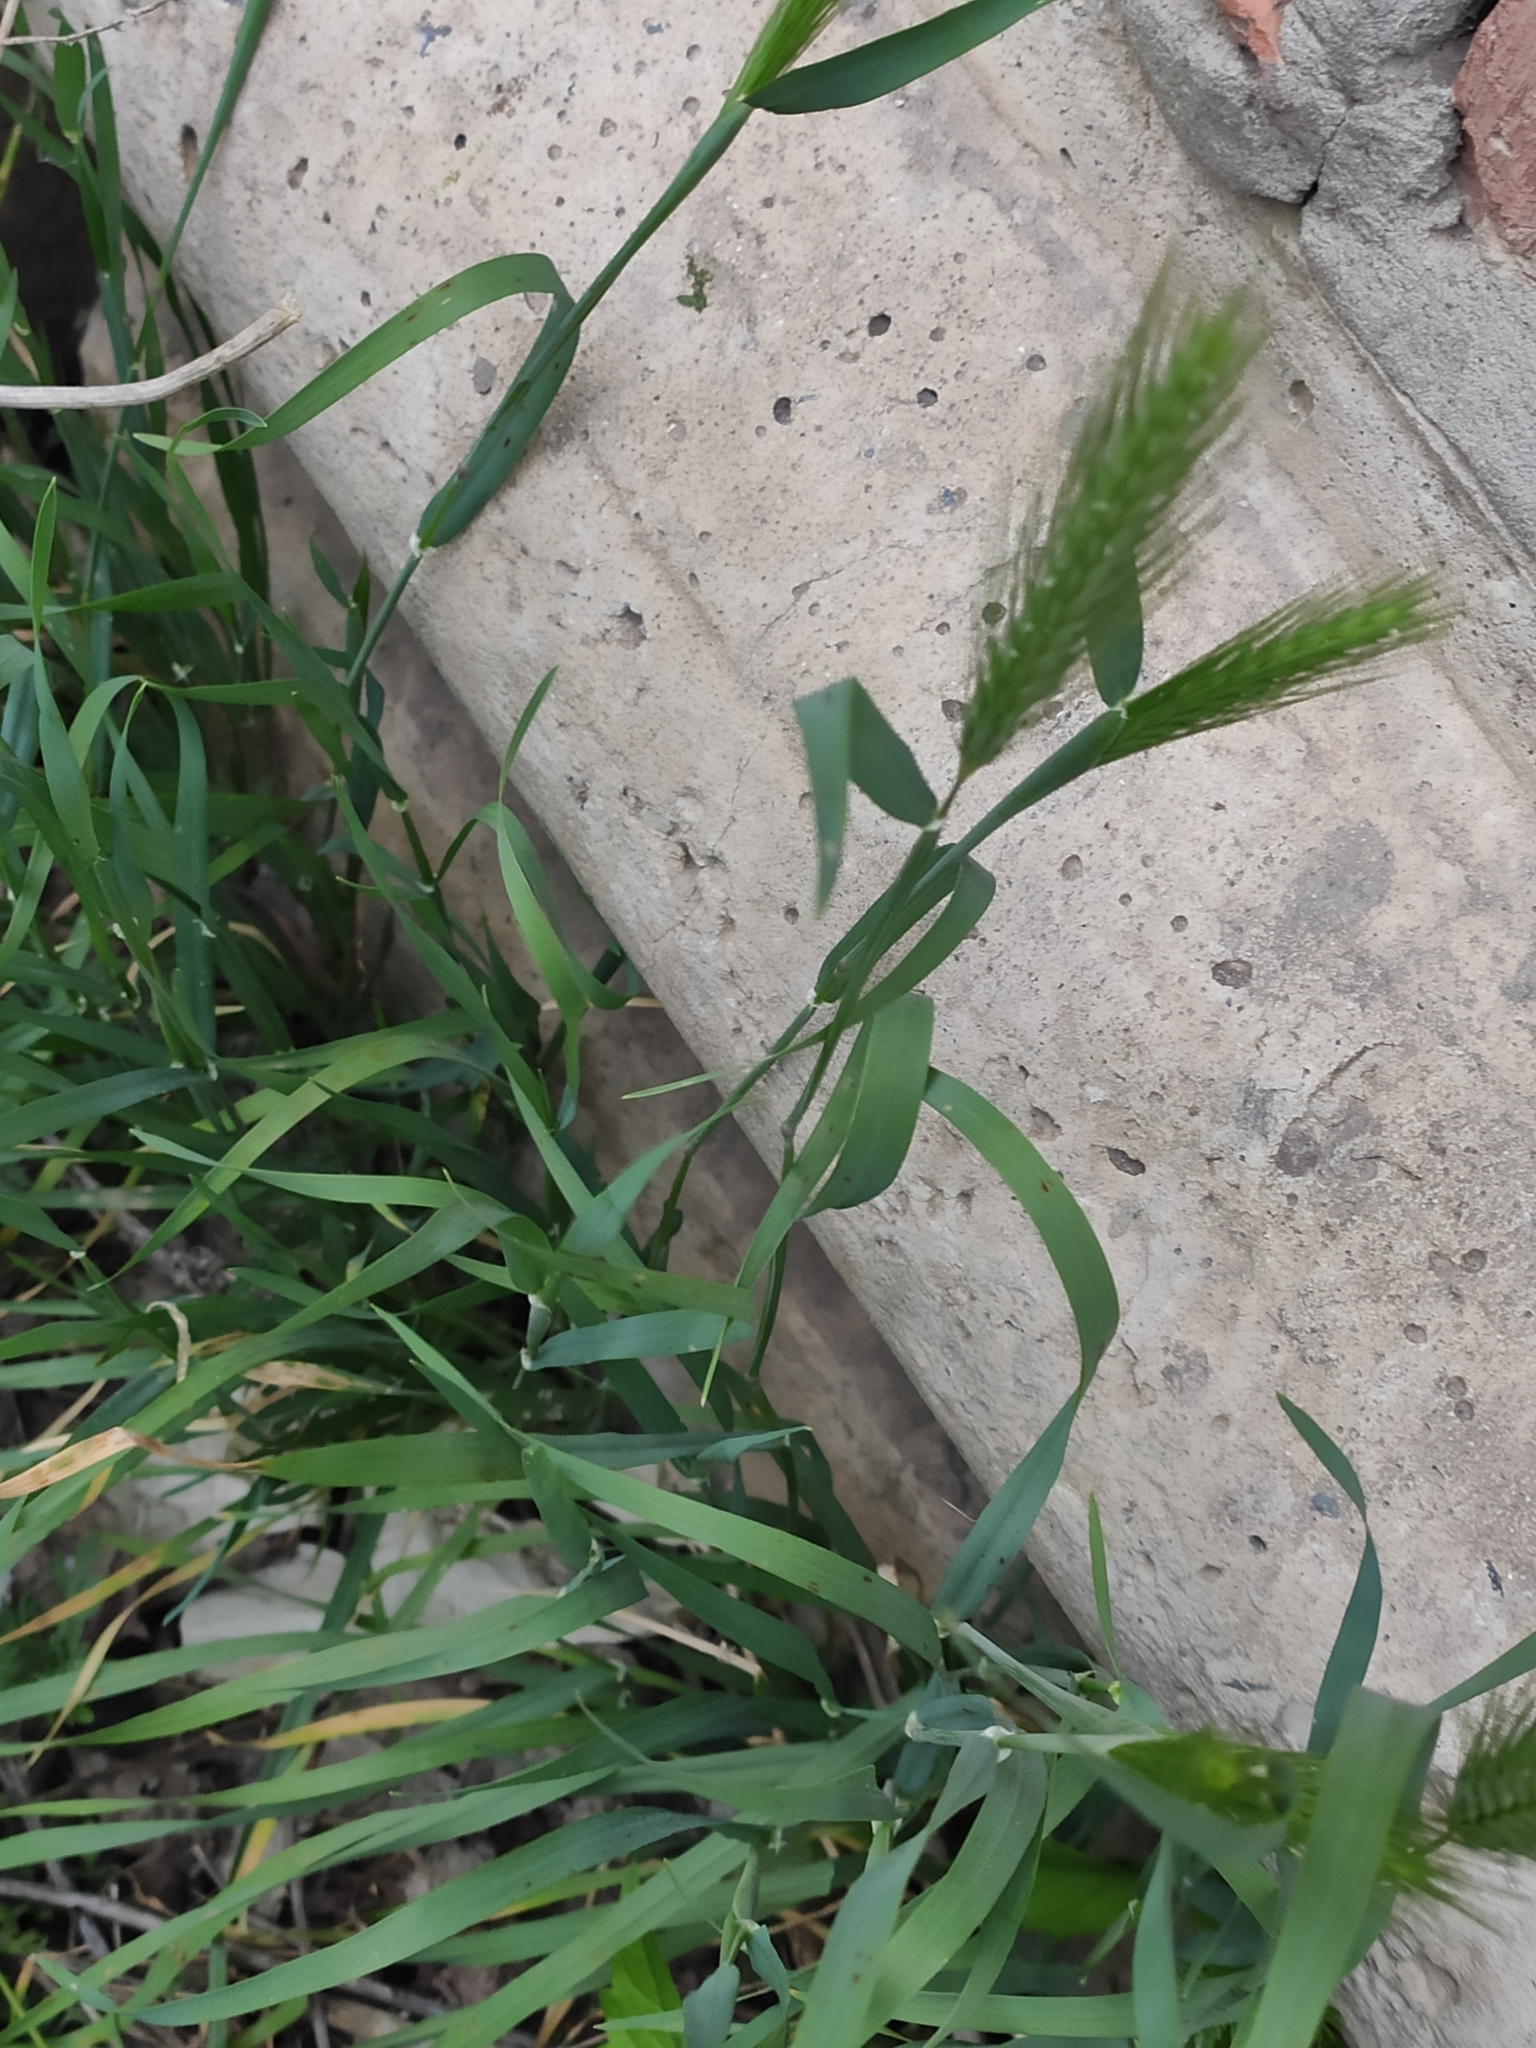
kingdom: Plantae
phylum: Tracheophyta
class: Liliopsida
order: Poales
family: Poaceae
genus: Hordeum
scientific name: Hordeum murinum
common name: Wall barley
